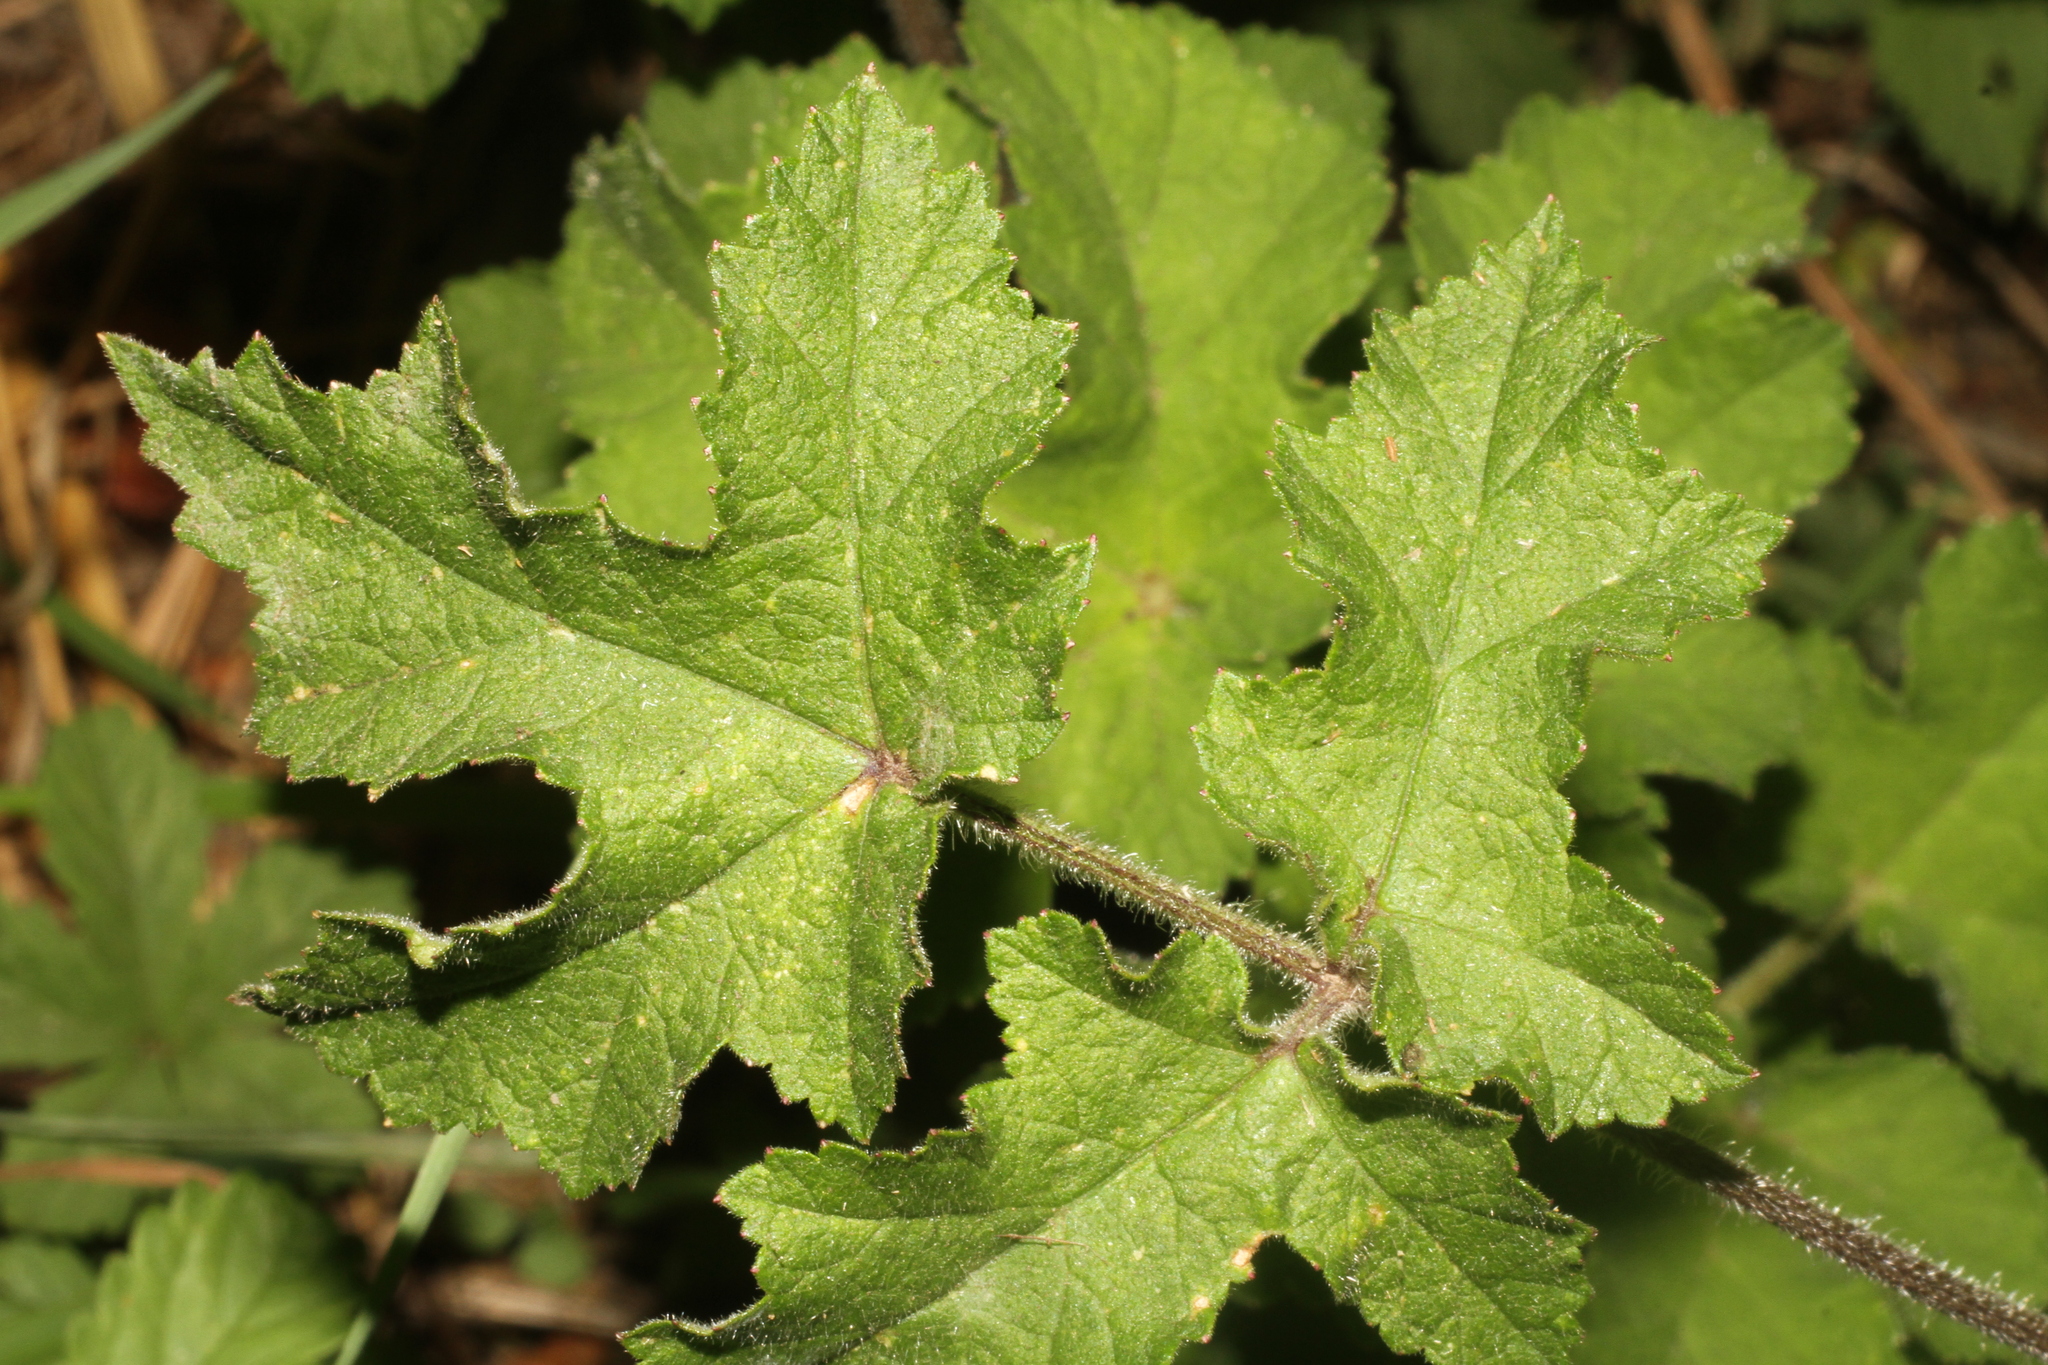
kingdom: Plantae
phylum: Tracheophyta
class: Magnoliopsida
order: Apiales
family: Apiaceae
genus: Heracleum
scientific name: Heracleum sphondylium
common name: Hogweed
